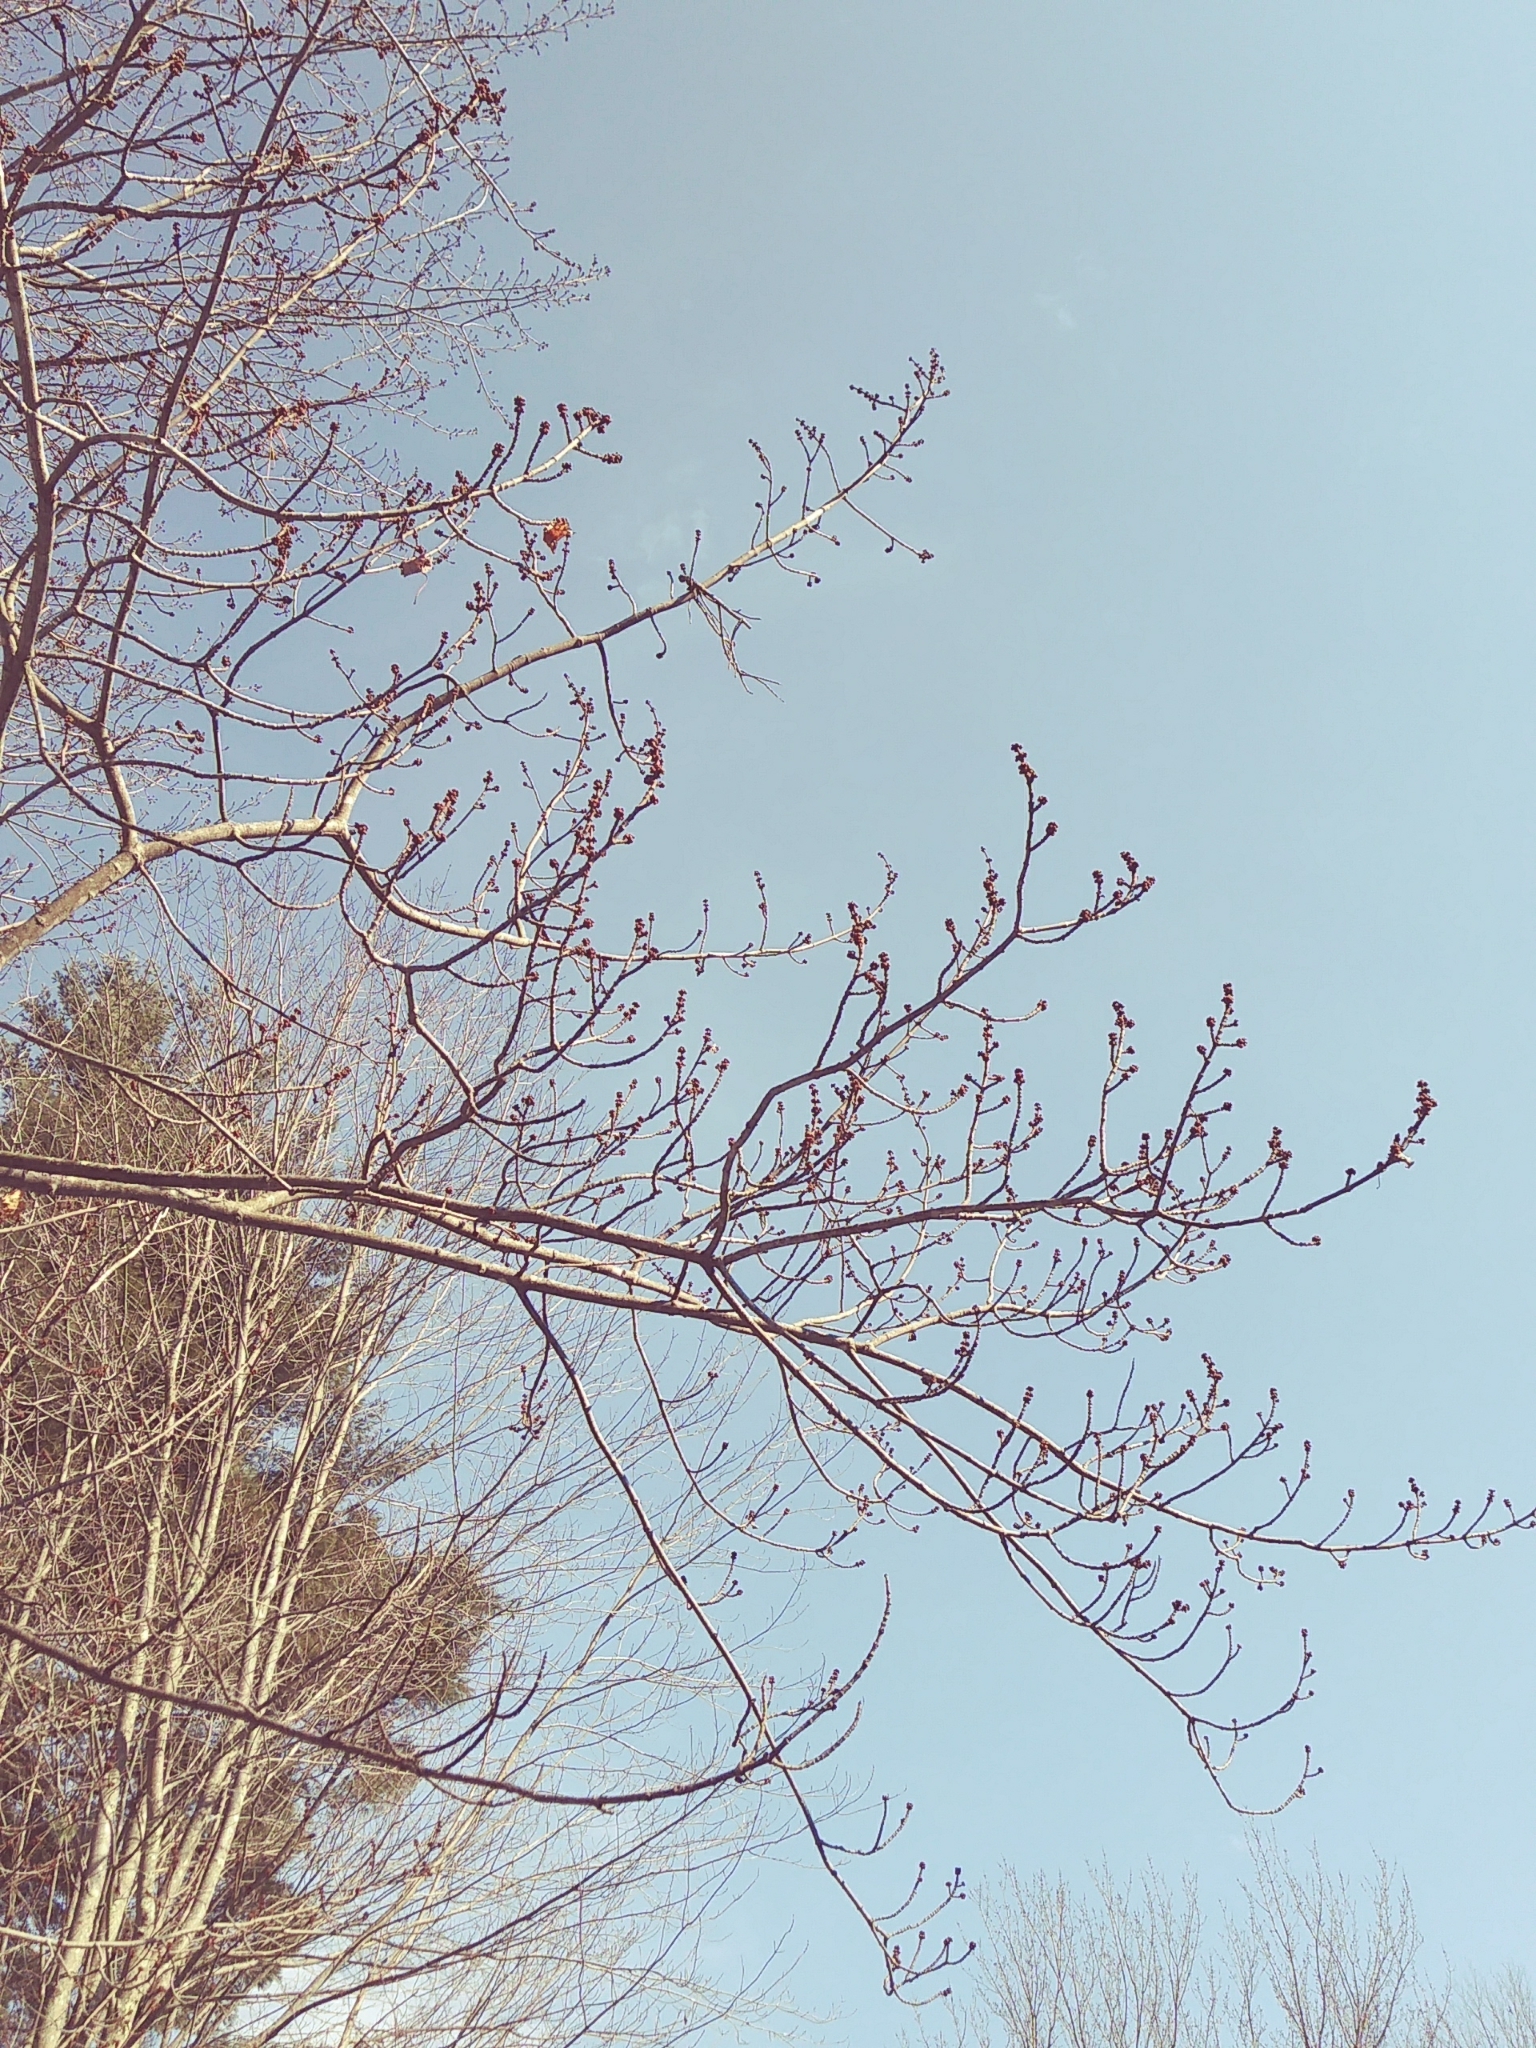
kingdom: Plantae
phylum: Tracheophyta
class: Magnoliopsida
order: Sapindales
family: Sapindaceae
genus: Acer
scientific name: Acer rubrum
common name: Red maple
